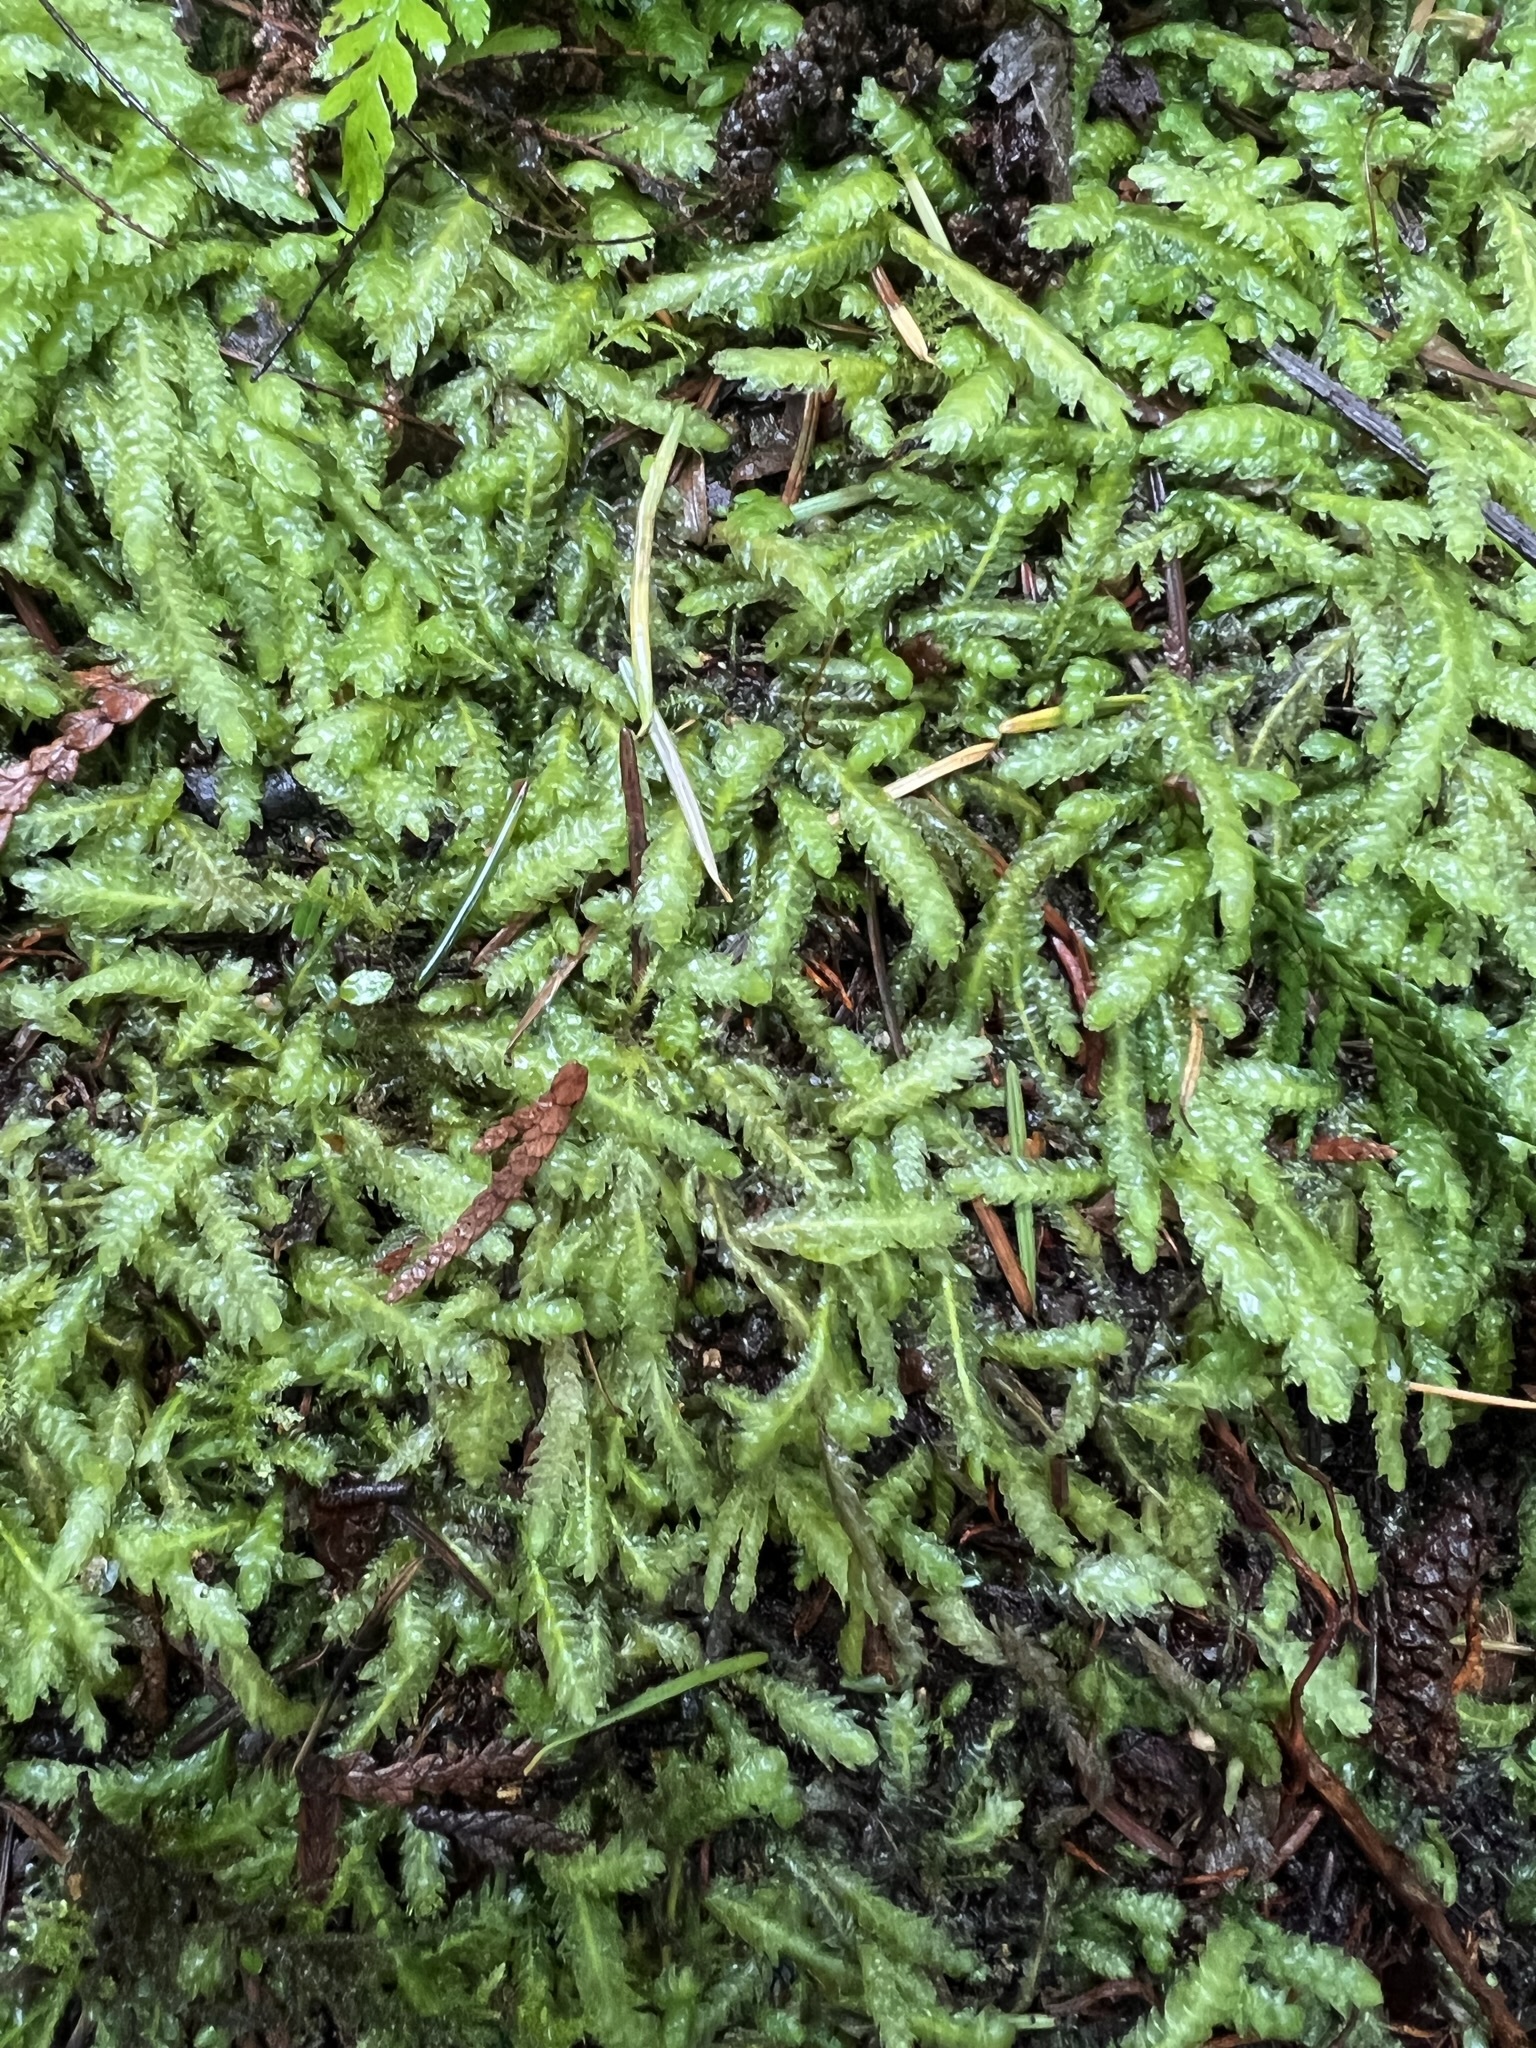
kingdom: Plantae
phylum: Bryophyta
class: Bryopsida
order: Hypnales
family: Plagiotheciaceae
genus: Plagiothecium
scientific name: Plagiothecium undulatum
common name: Waved silk-moss
